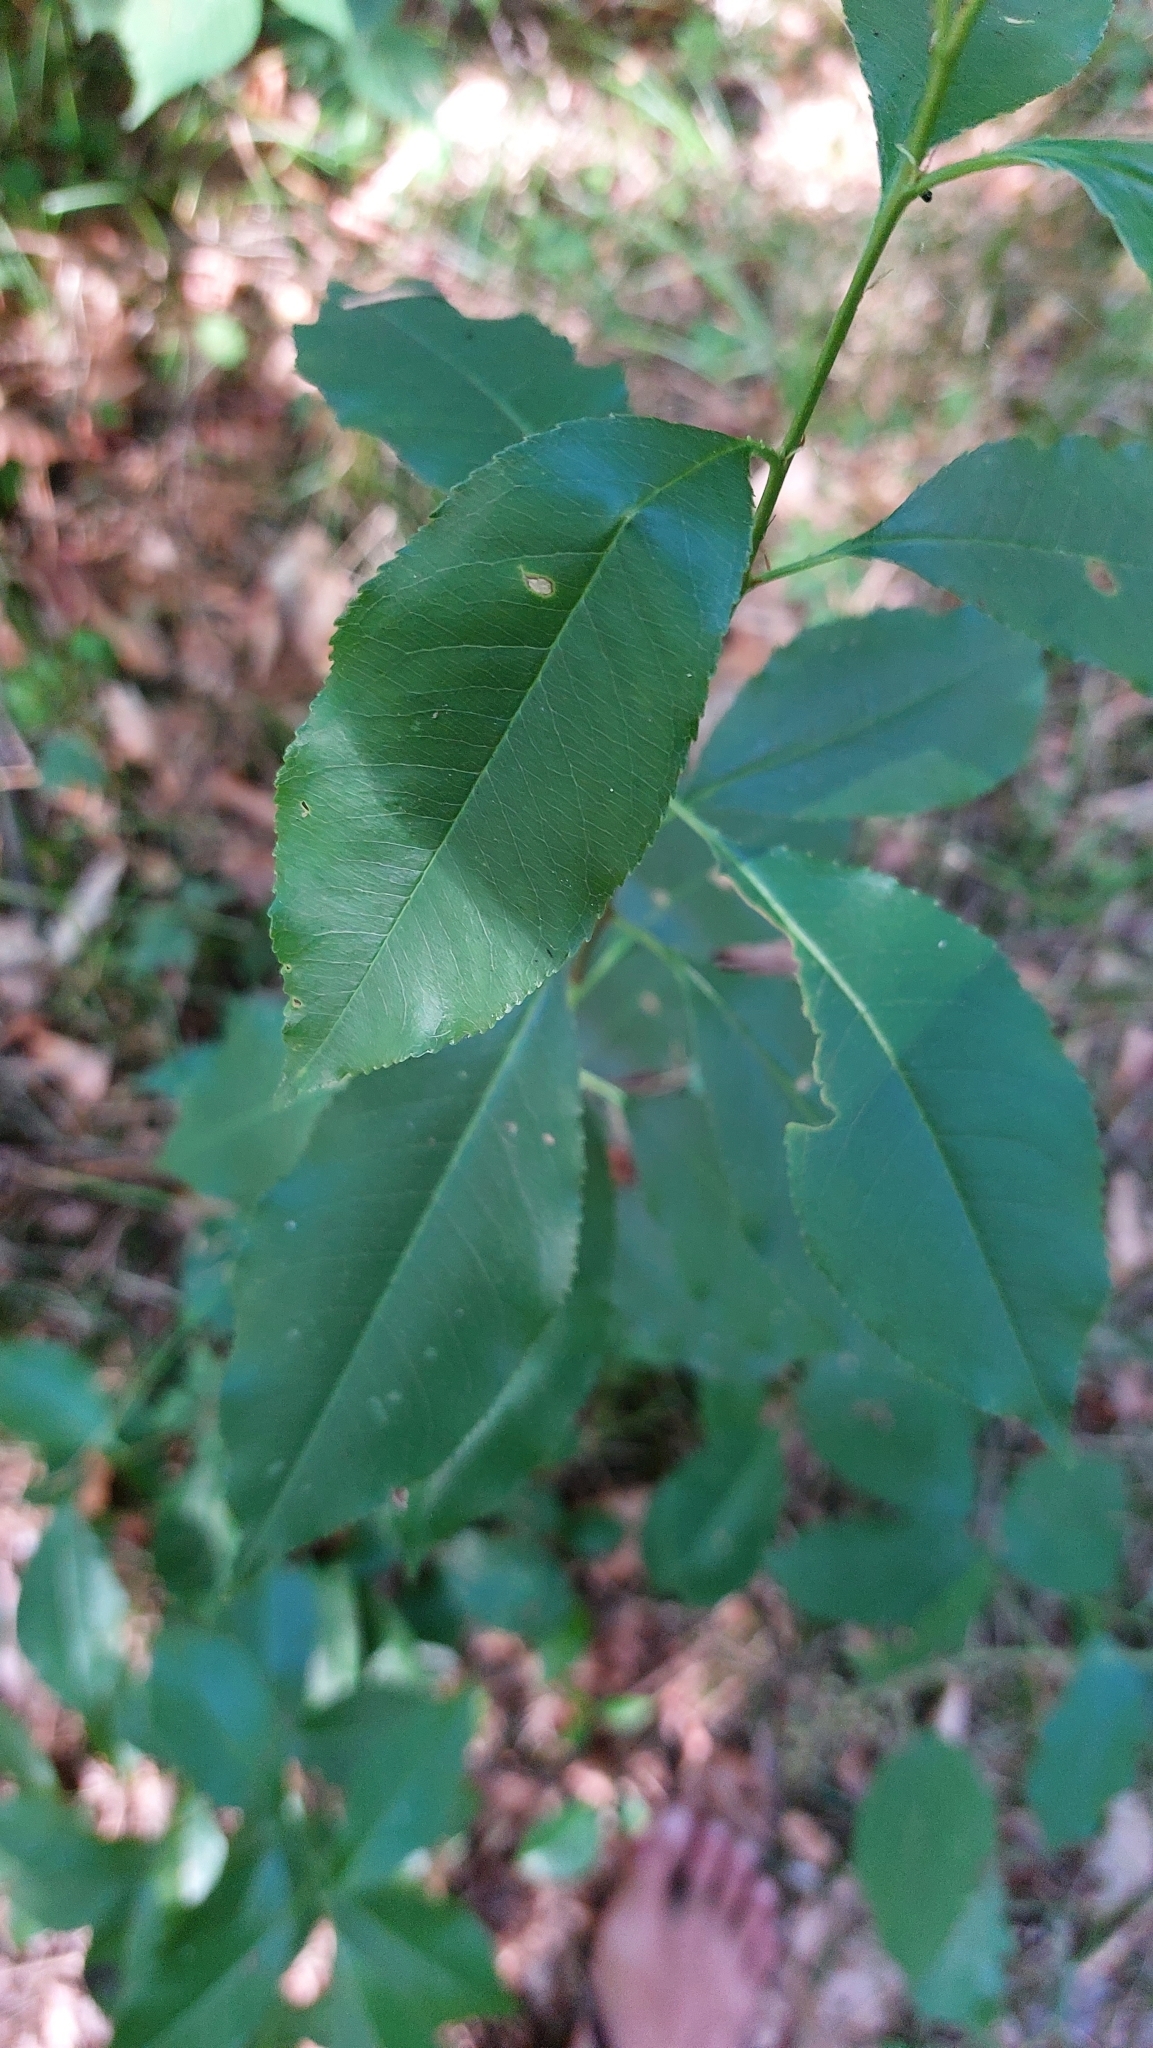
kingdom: Plantae
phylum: Tracheophyta
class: Magnoliopsida
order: Rosales
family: Rosaceae
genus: Prunus
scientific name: Prunus serotina
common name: Black cherry
